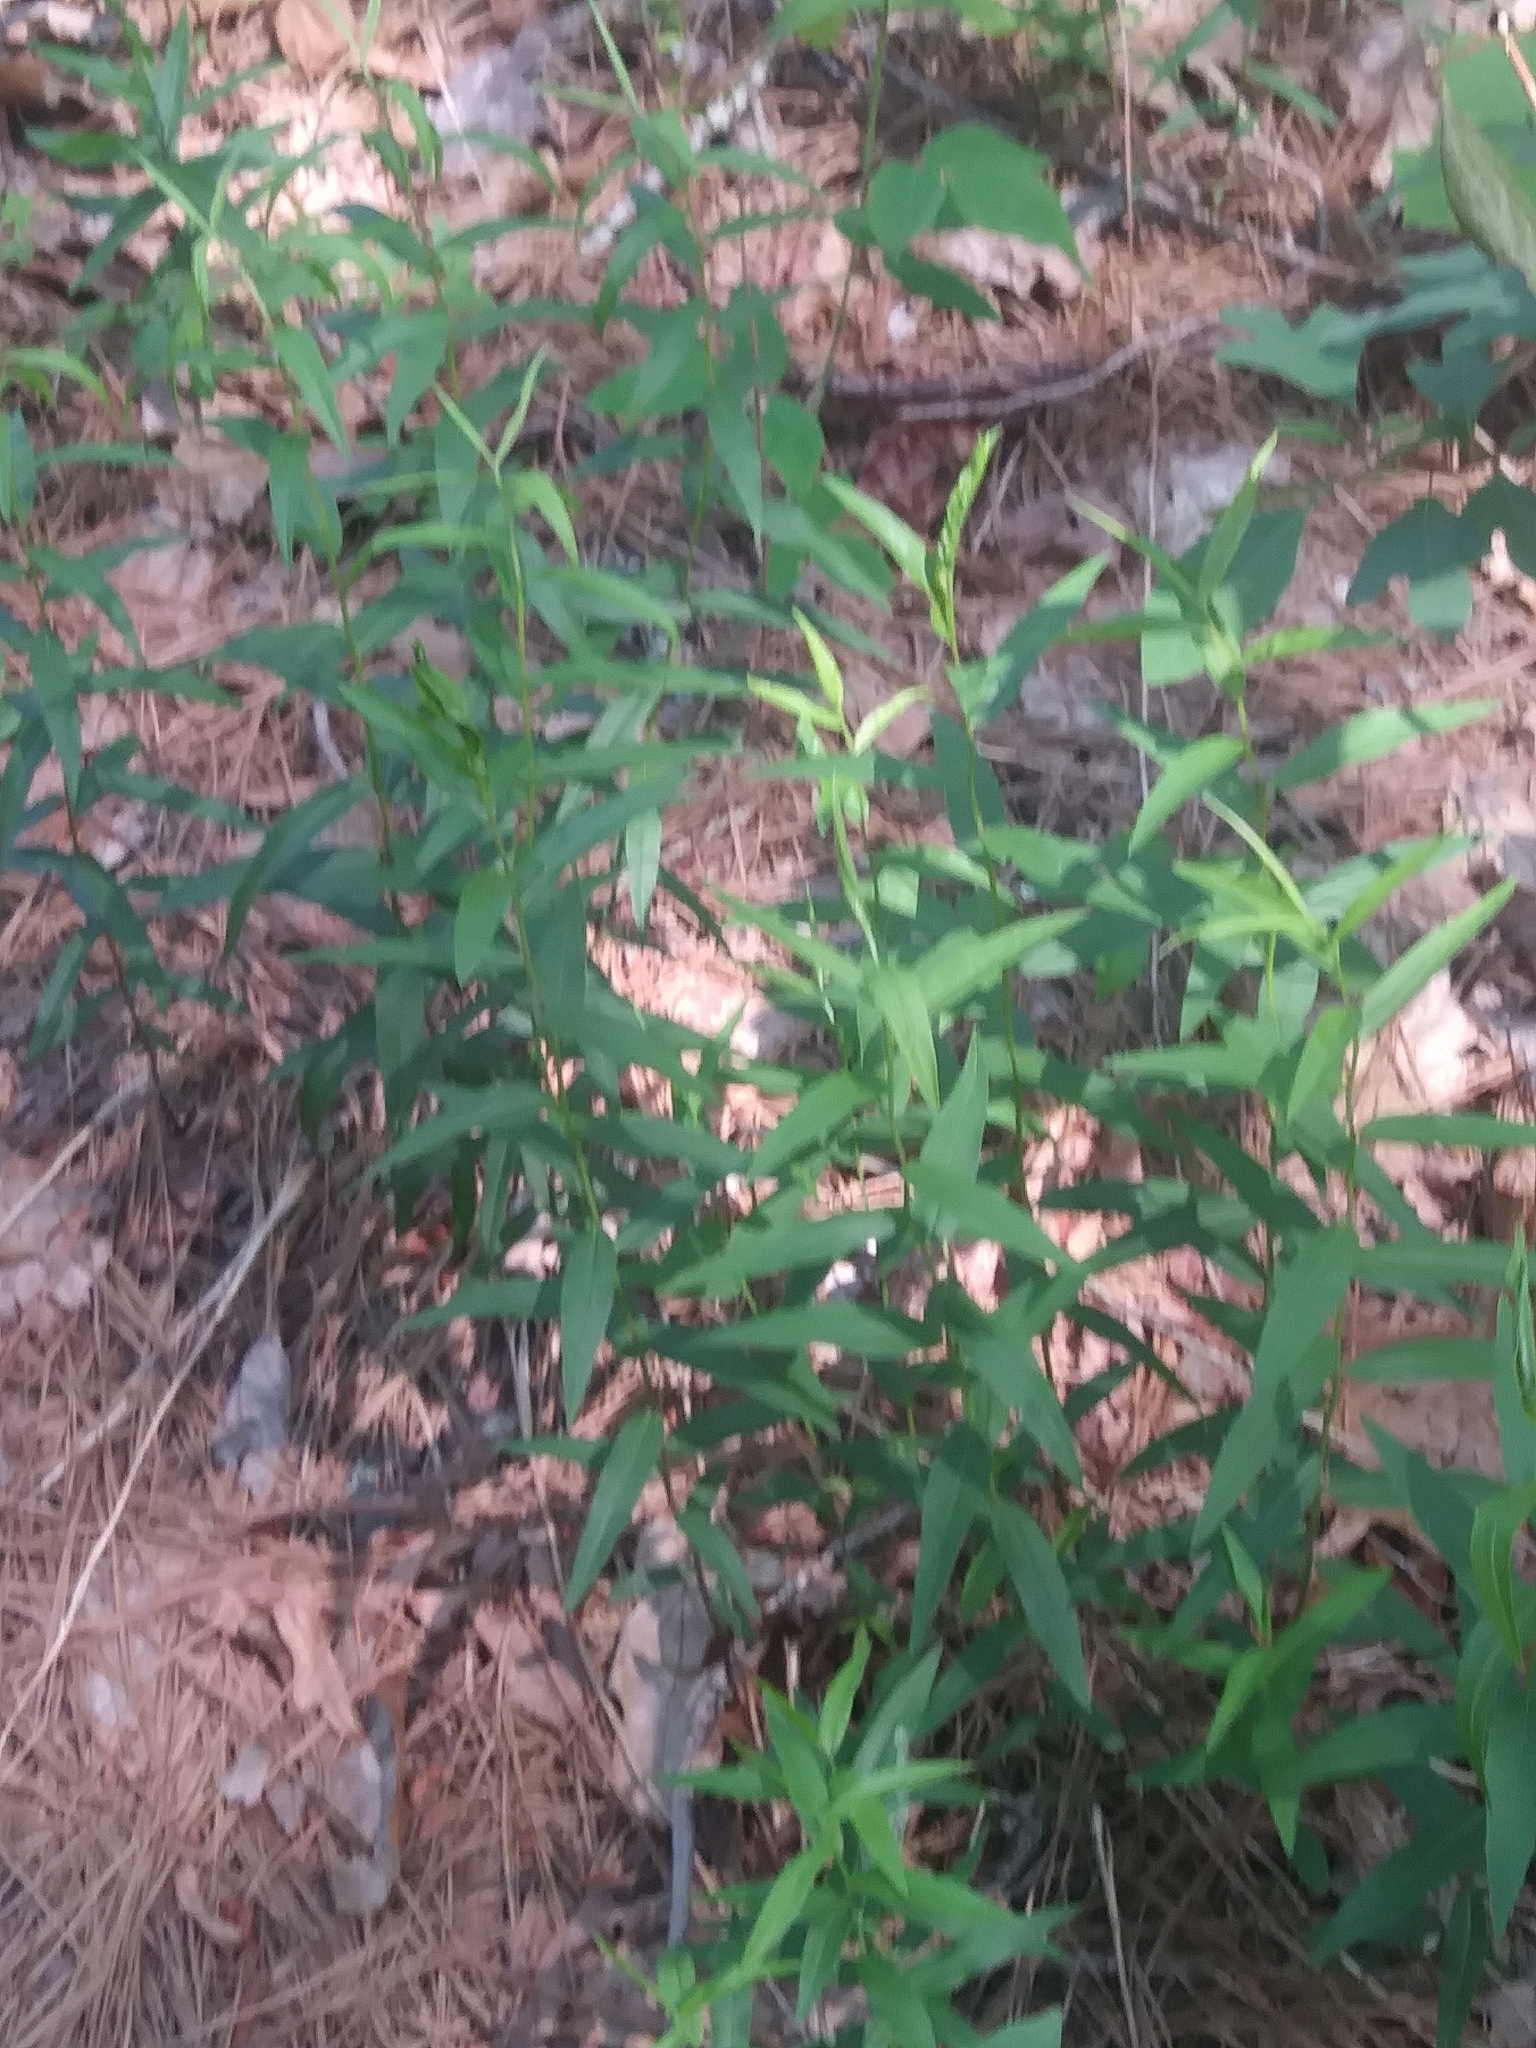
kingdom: Plantae
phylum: Tracheophyta
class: Magnoliopsida
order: Asterales
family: Asteraceae
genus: Solidago
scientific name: Solidago odora
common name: Anise-scented goldenrod
